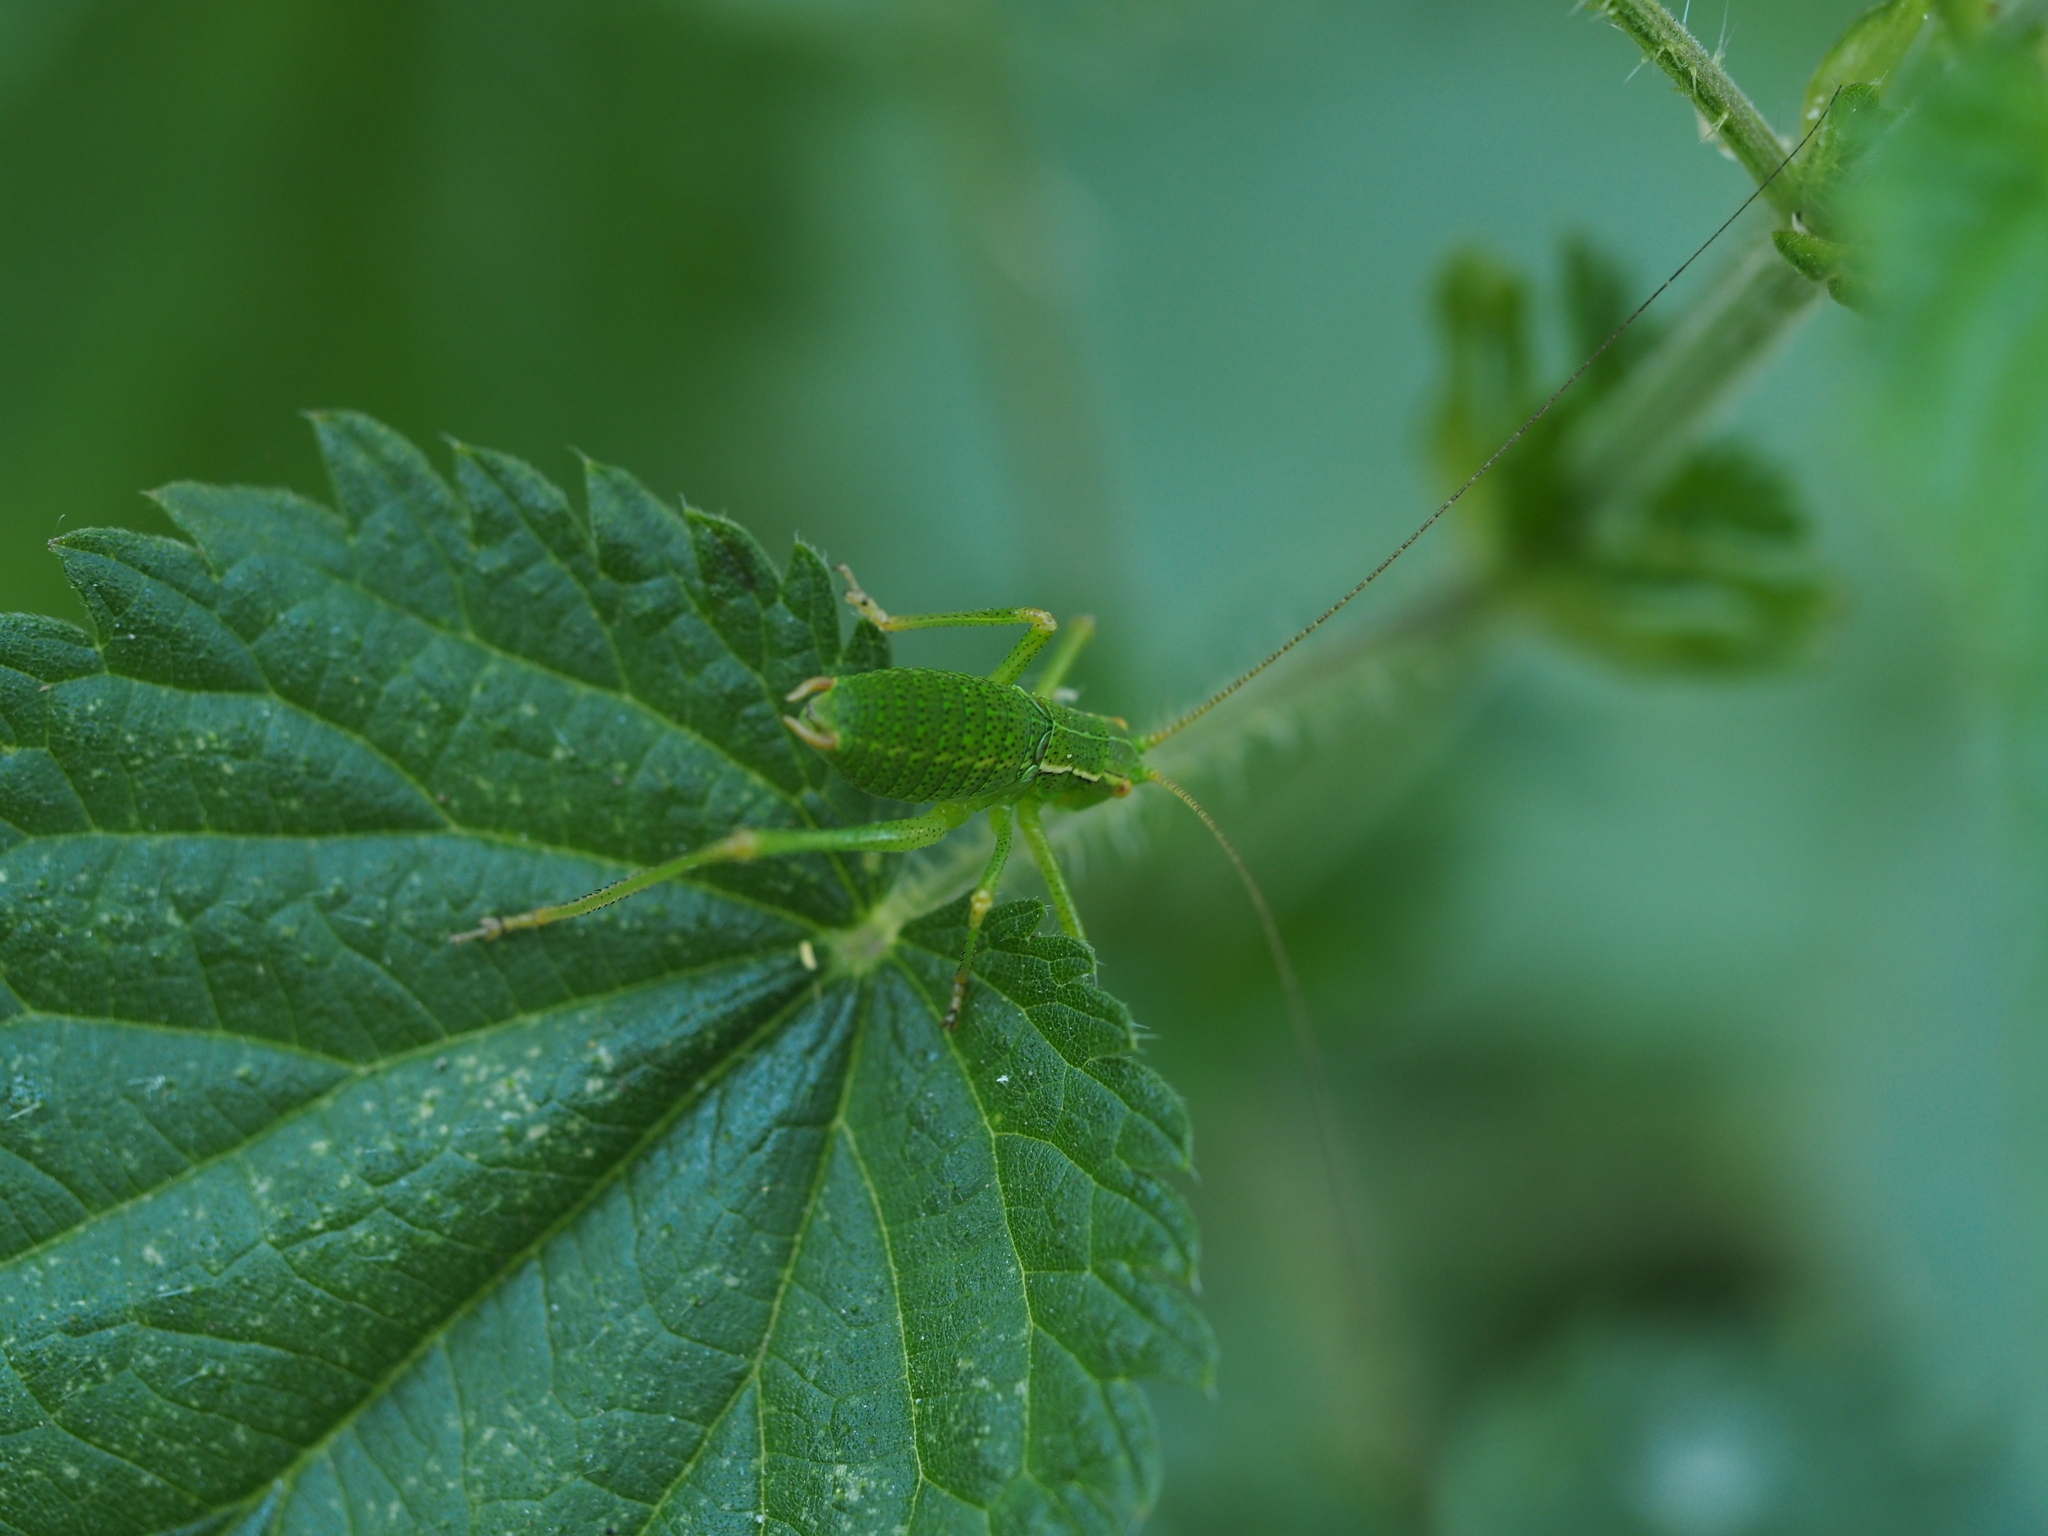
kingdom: Animalia
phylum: Arthropoda
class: Insecta
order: Orthoptera
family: Tettigoniidae
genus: Barbitistes
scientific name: Barbitistes serricauda
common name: Saw-tailed bush-cricket
